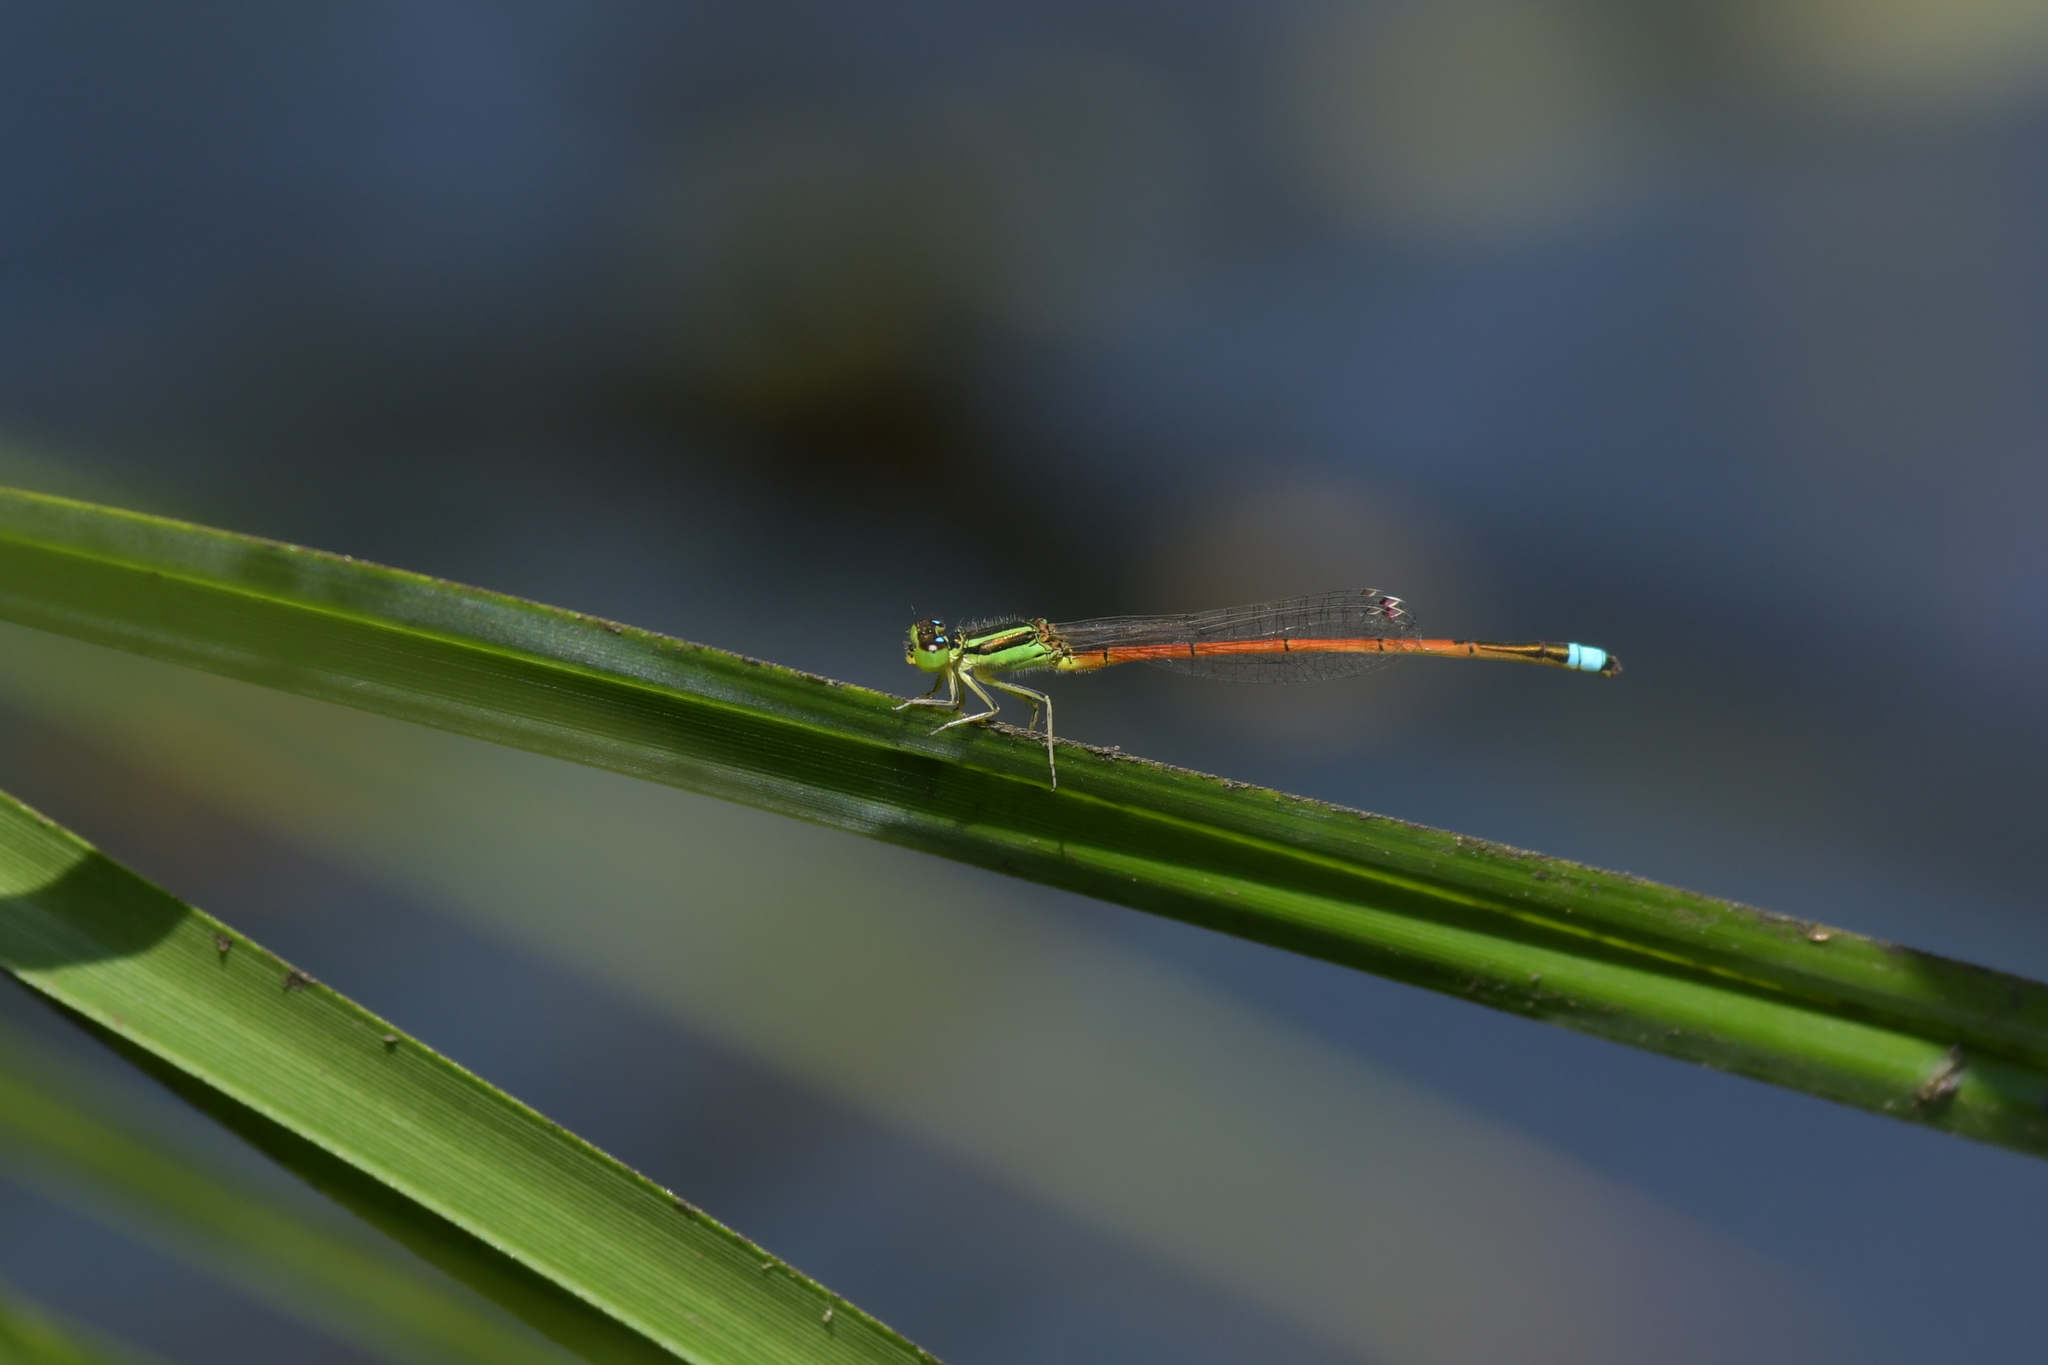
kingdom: Animalia
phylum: Arthropoda
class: Insecta
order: Odonata
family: Coenagrionidae
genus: Ischnura
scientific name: Ischnura aurora
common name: Gossamer damselfly
